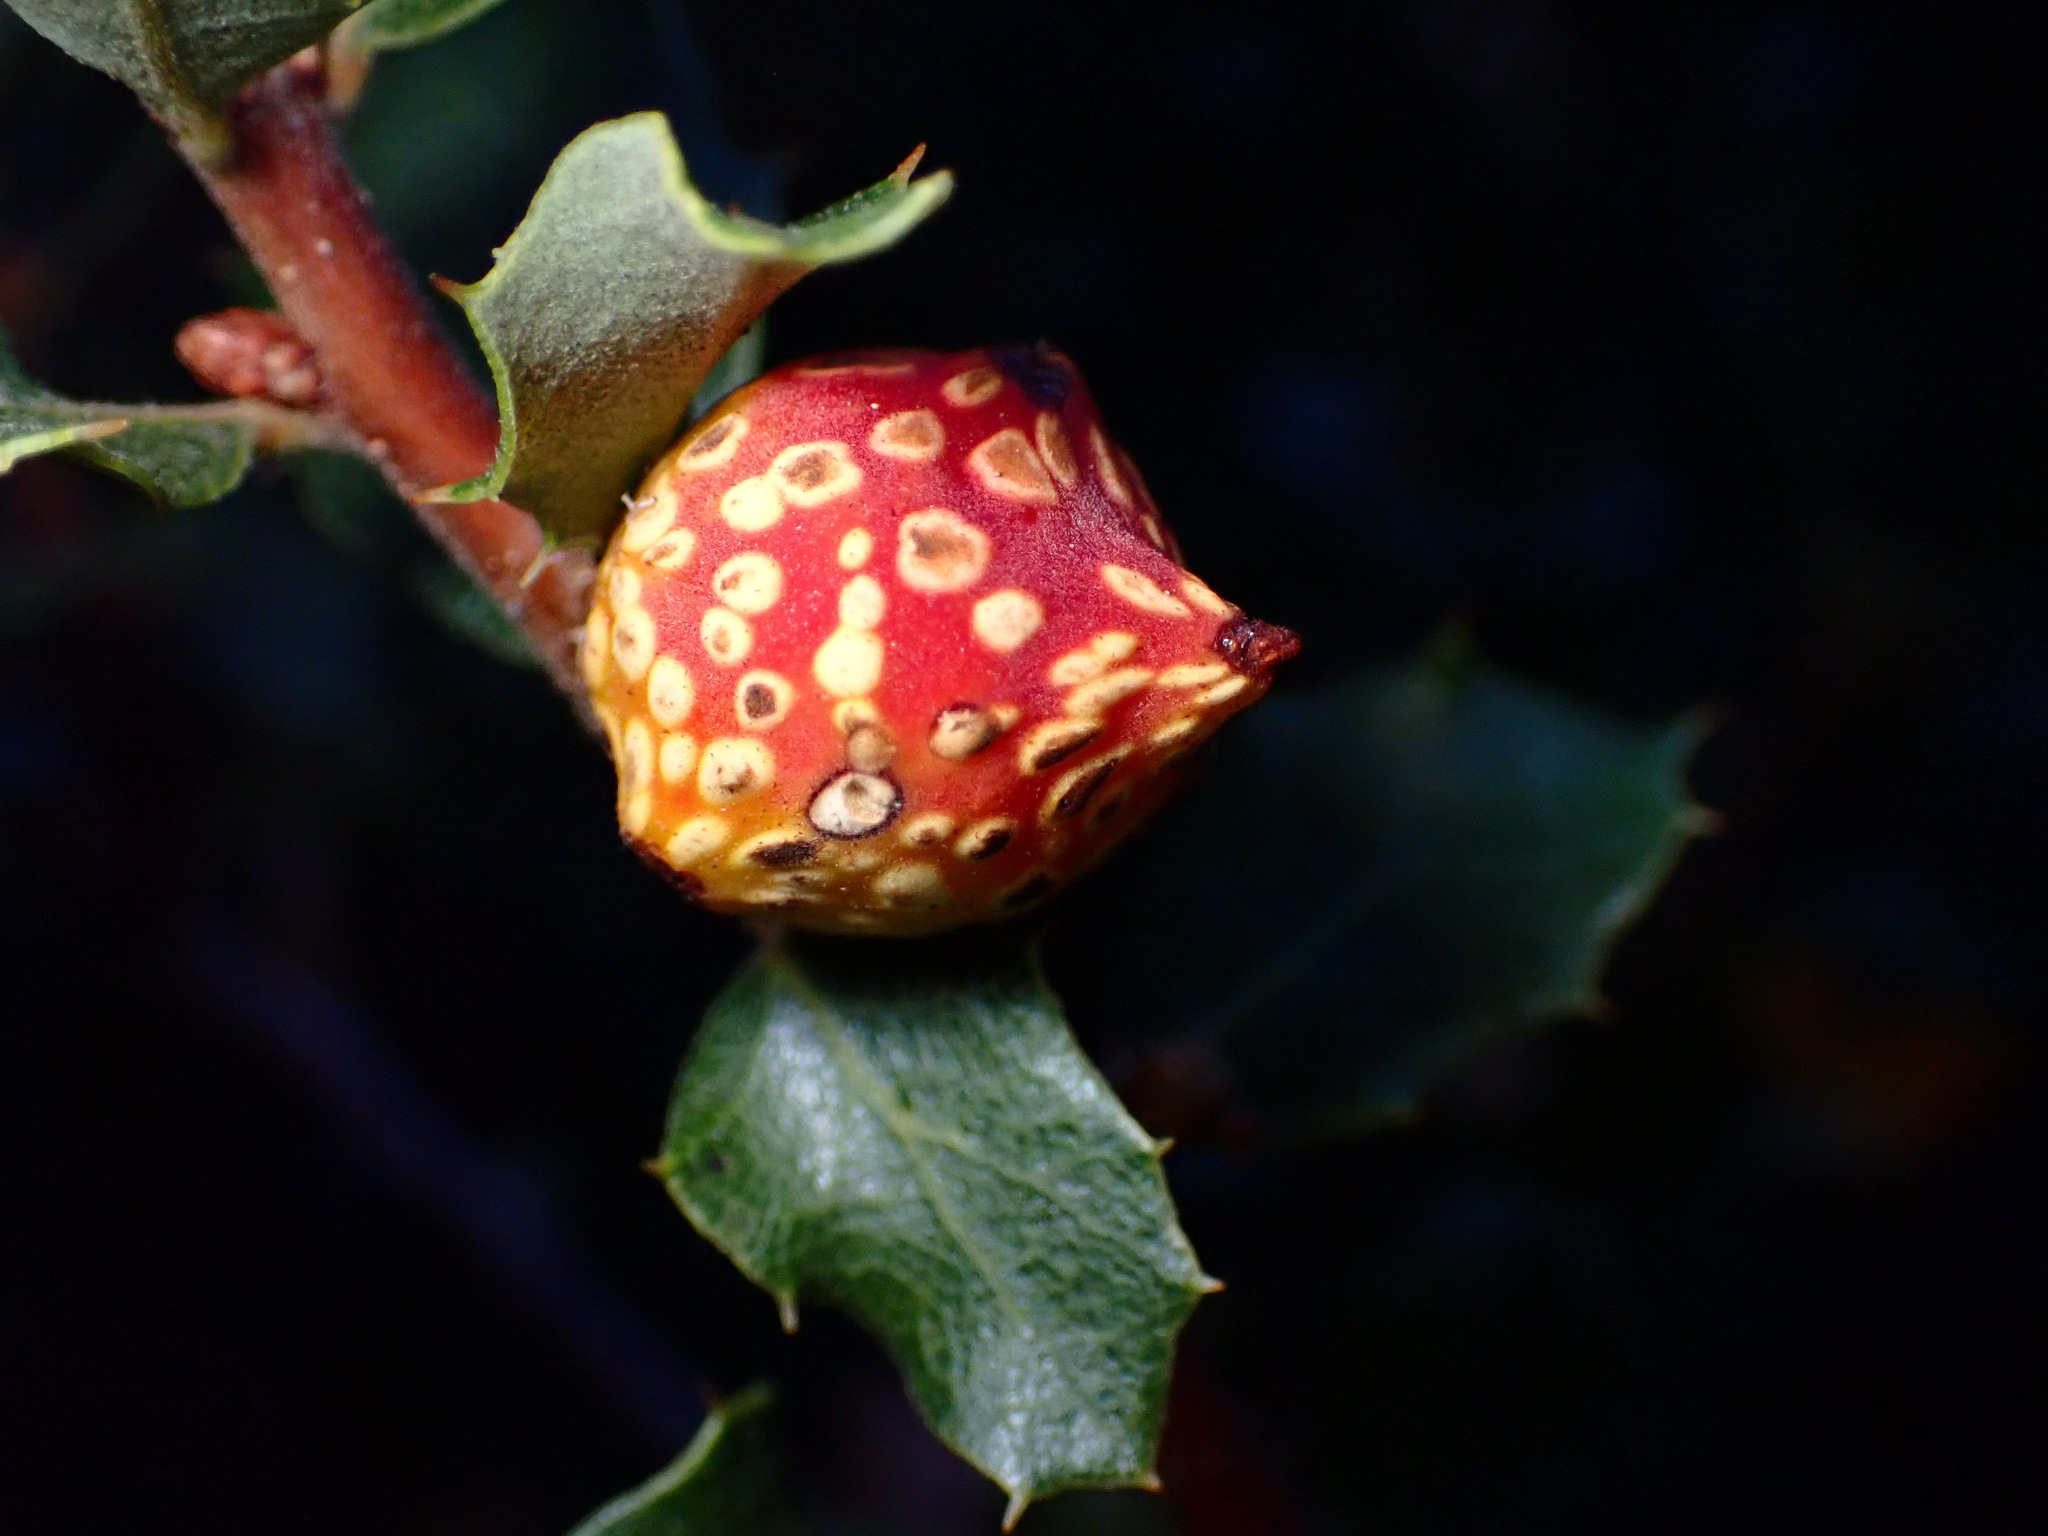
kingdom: Animalia
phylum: Arthropoda
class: Insecta
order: Hymenoptera
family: Cynipidae
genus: Burnettweldia
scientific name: Burnettweldia
